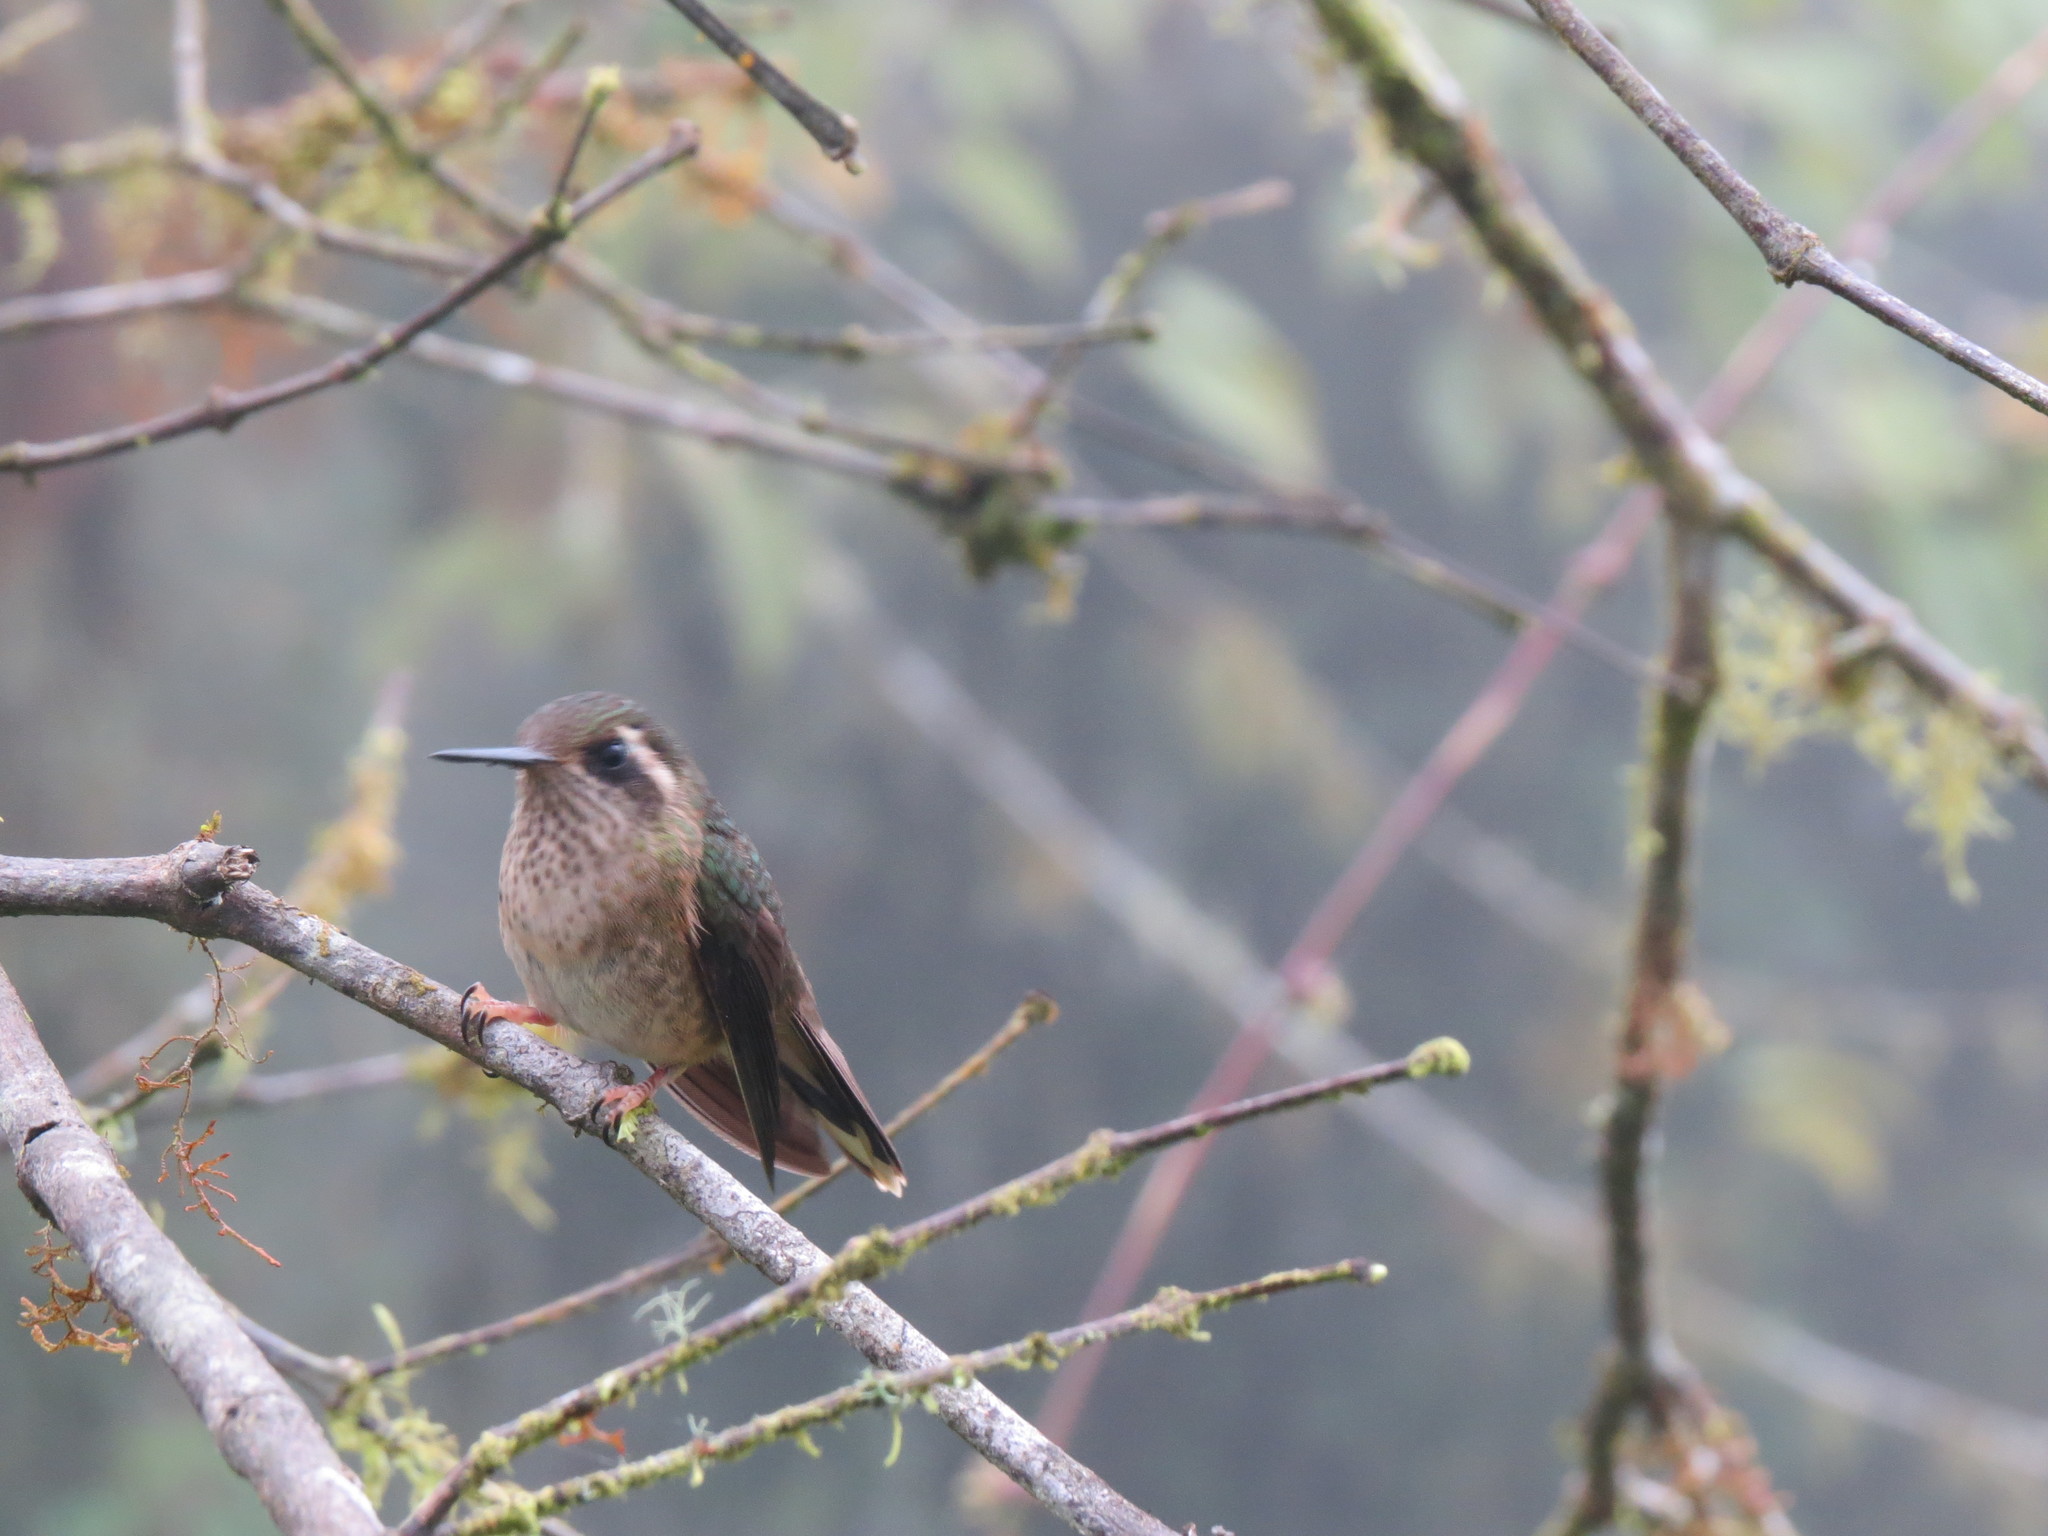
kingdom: Animalia
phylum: Chordata
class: Aves
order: Apodiformes
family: Trochilidae
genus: Adelomyia
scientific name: Adelomyia melanogenys
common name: Speckled hummingbird
